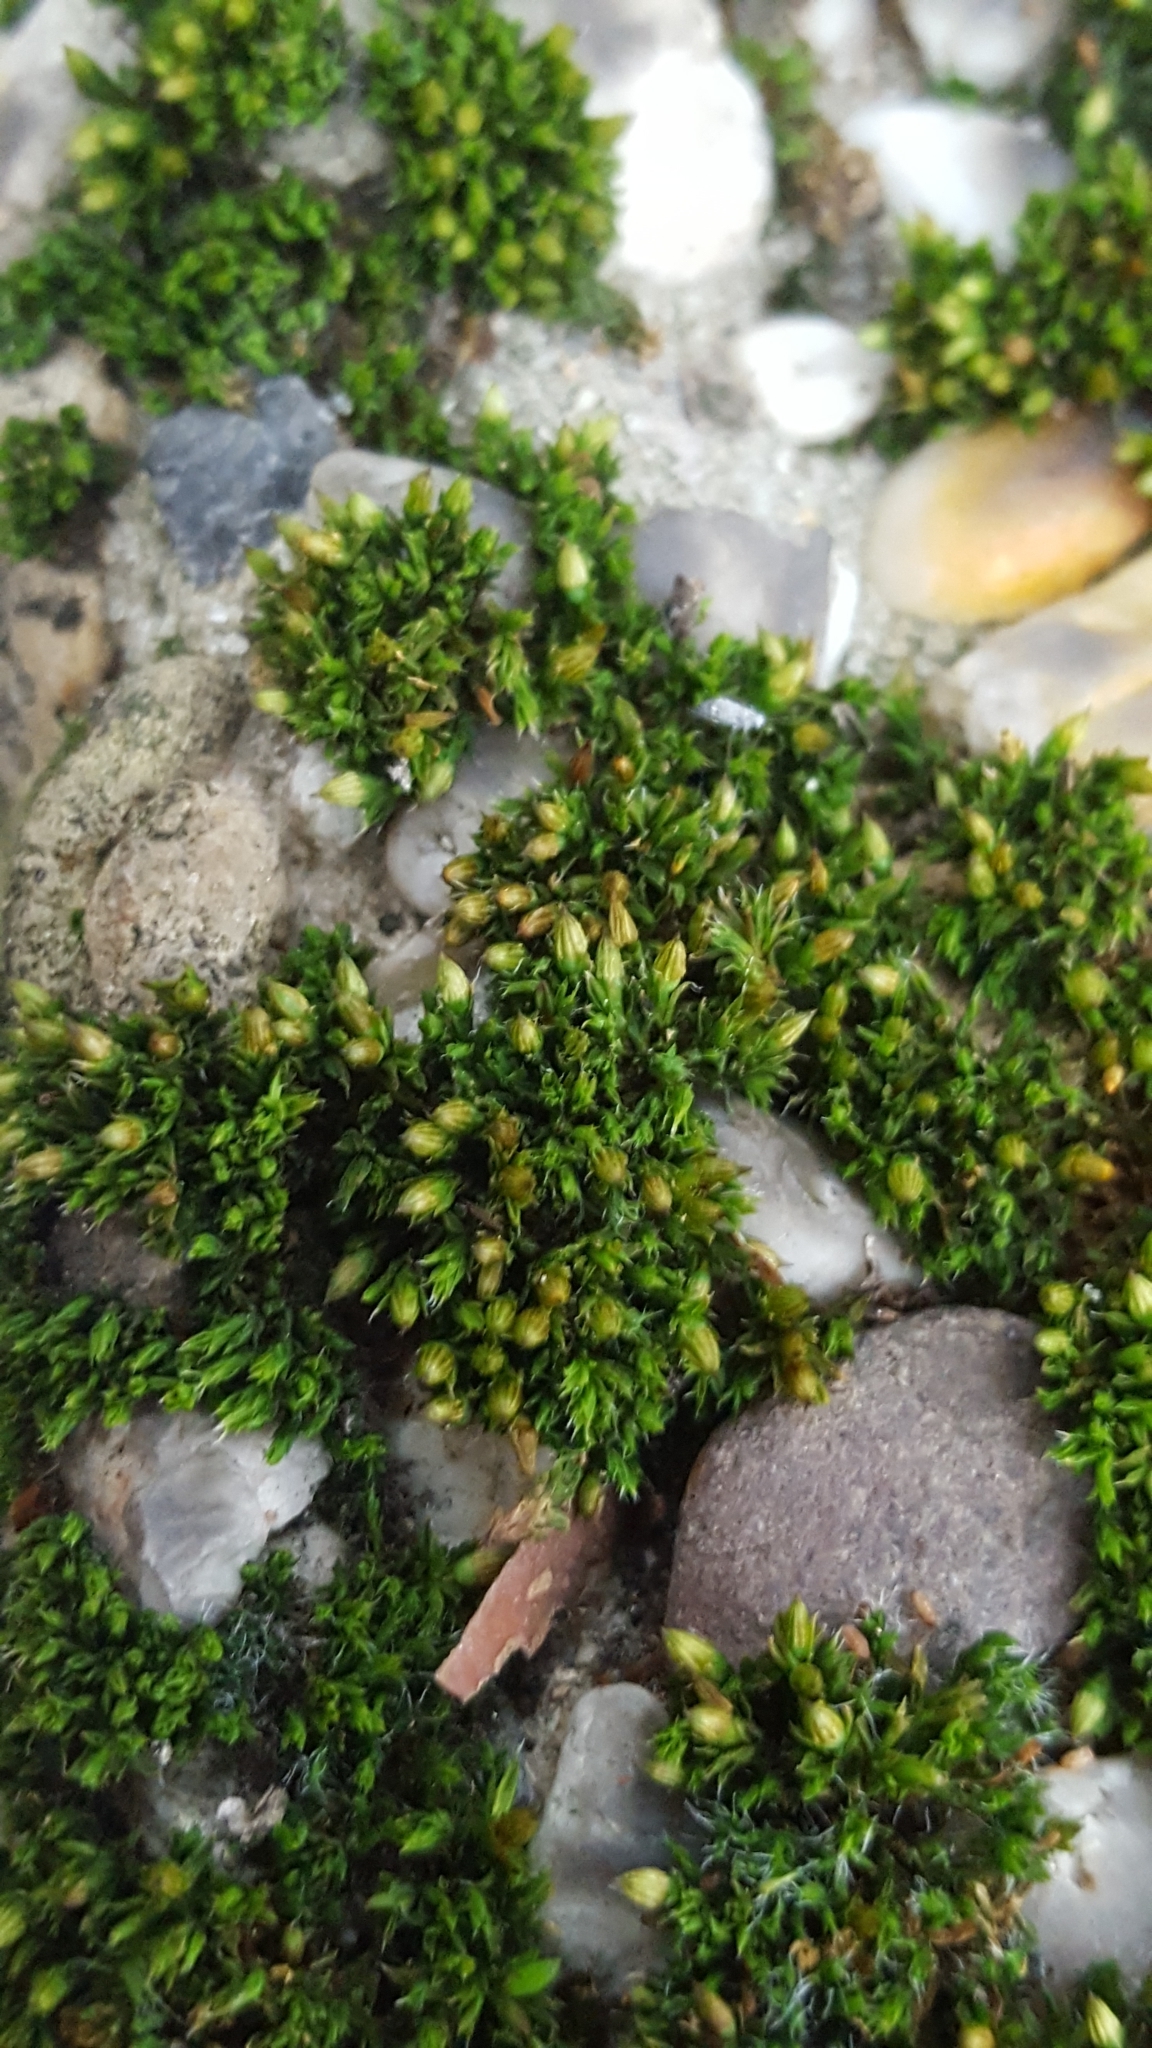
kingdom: Plantae
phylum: Bryophyta
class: Bryopsida
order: Orthotrichales
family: Orthotrichaceae
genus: Orthotrichum
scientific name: Orthotrichum diaphanum
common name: White-tipped bristle-moss
